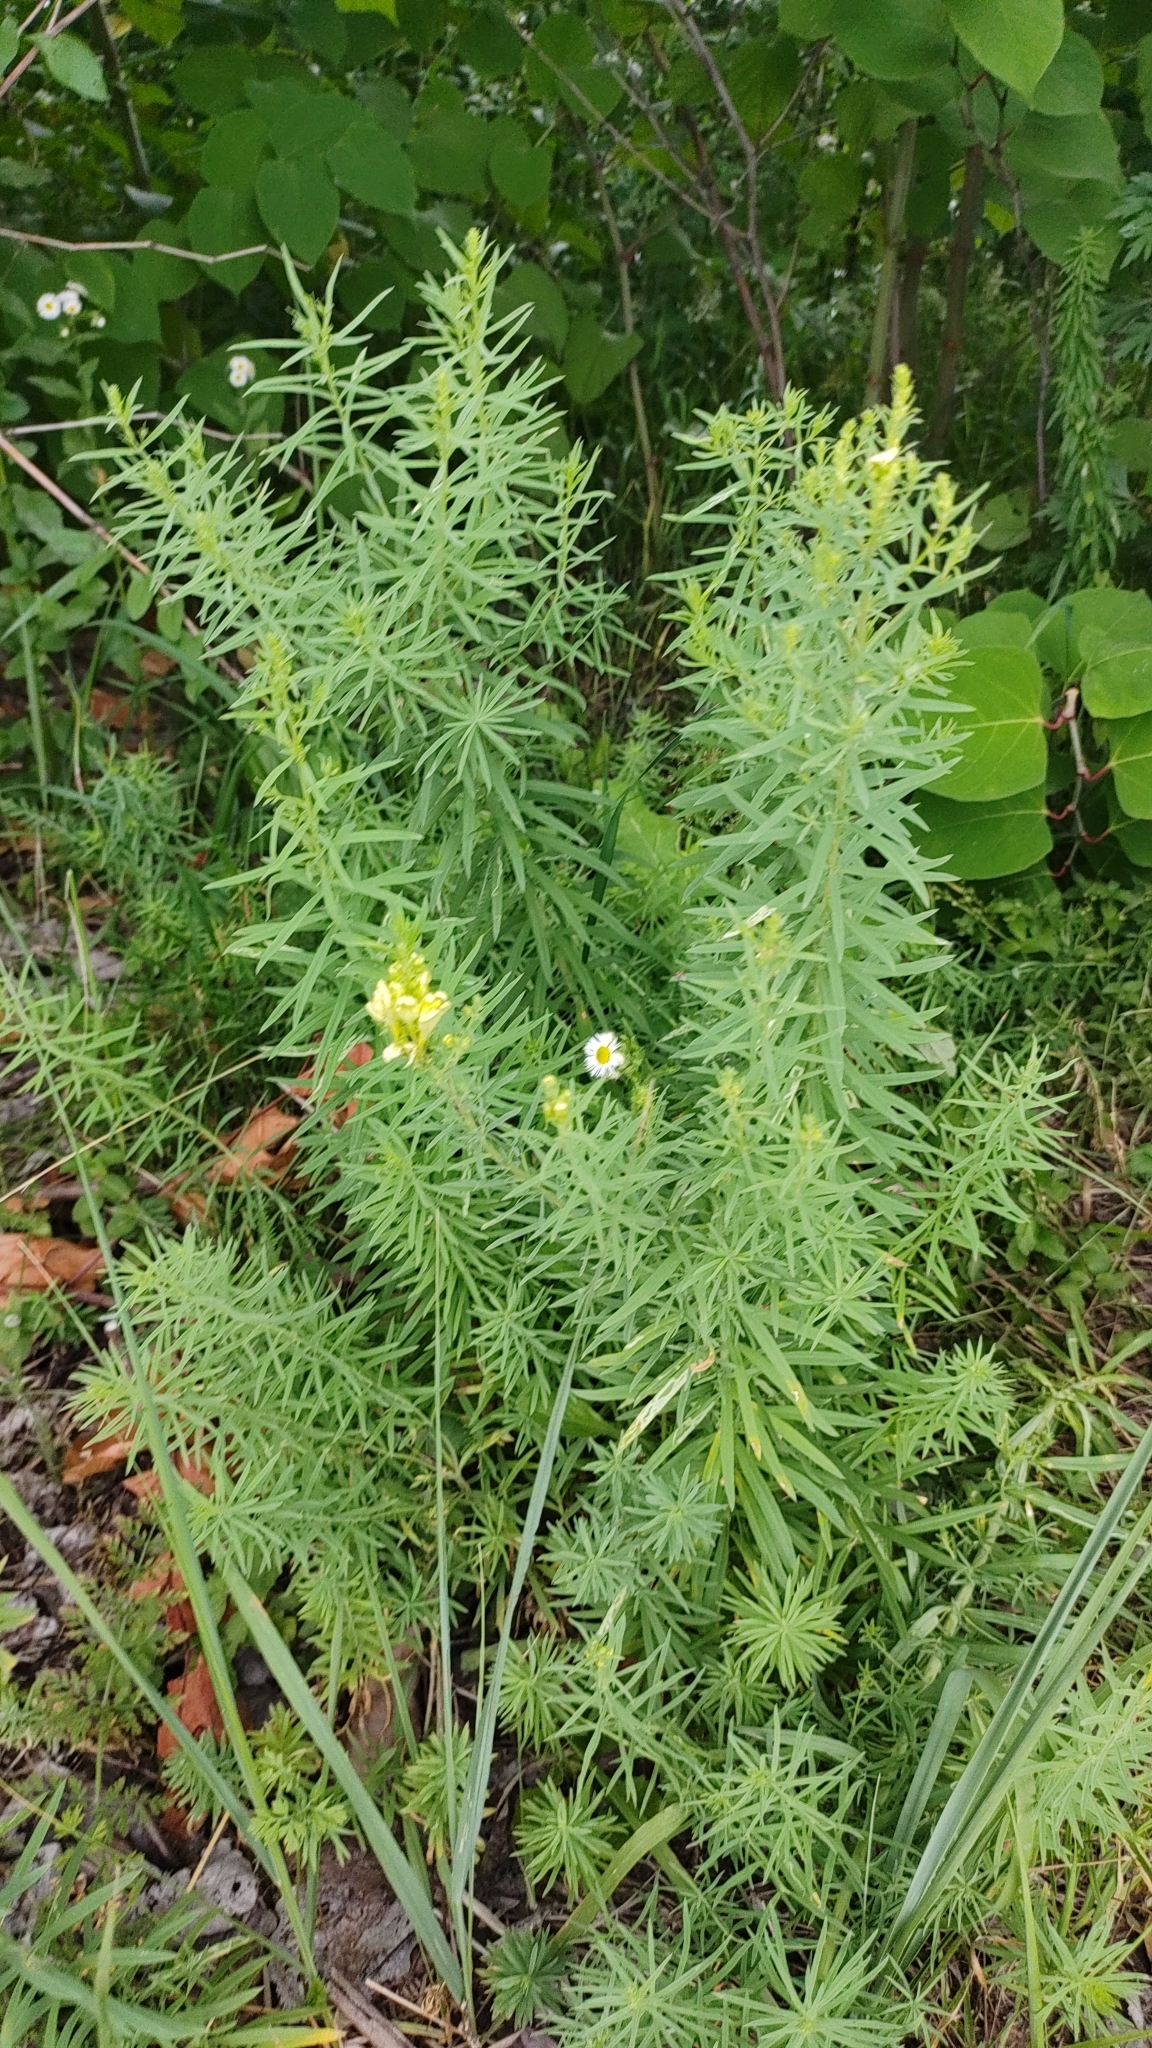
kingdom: Plantae
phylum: Tracheophyta
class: Magnoliopsida
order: Lamiales
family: Plantaginaceae
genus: Linaria
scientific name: Linaria vulgaris
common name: Butter and eggs
